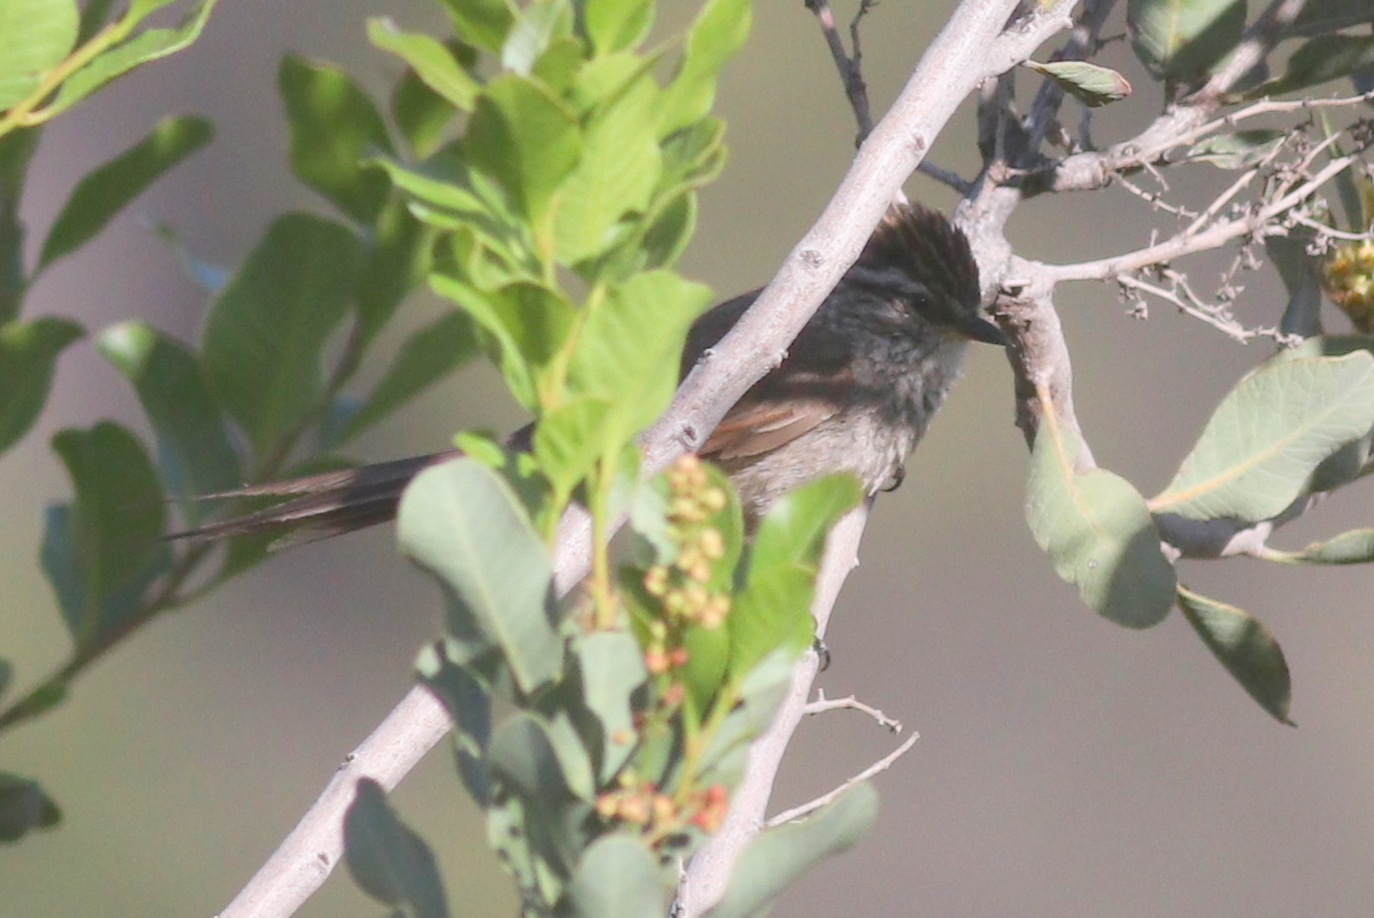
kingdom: Animalia
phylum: Chordata
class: Aves
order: Passeriformes
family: Furnariidae
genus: Leptasthenura
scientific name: Leptasthenura aegithaloides
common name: Plain-mantled tit-spinetail
